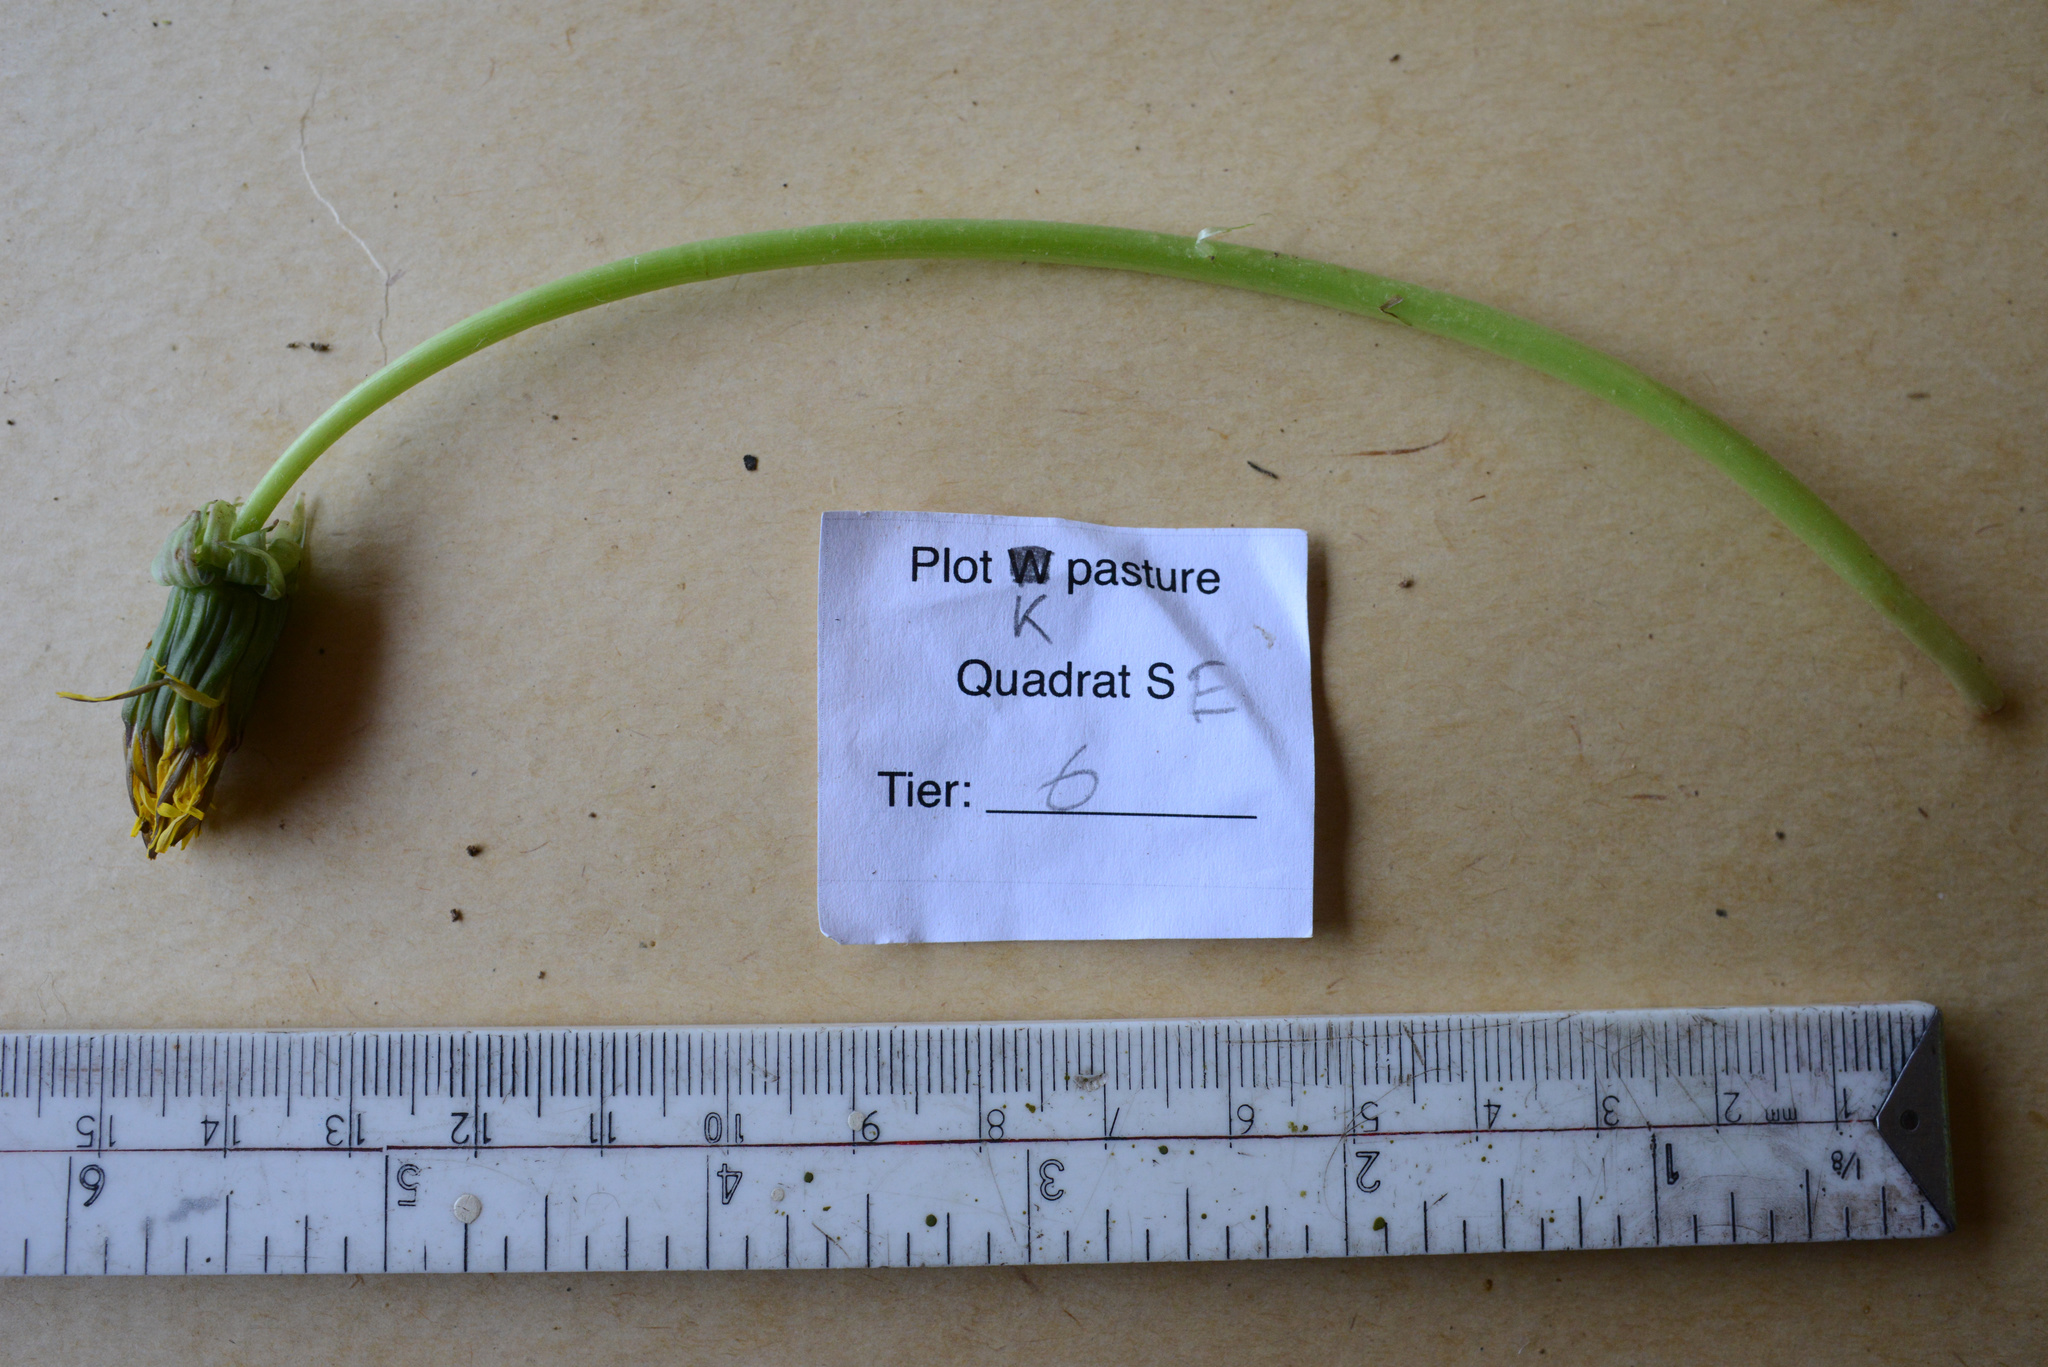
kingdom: Plantae
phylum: Tracheophyta
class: Magnoliopsida
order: Asterales
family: Asteraceae
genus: Taraxacum
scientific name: Taraxacum officinale
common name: Common dandelion
